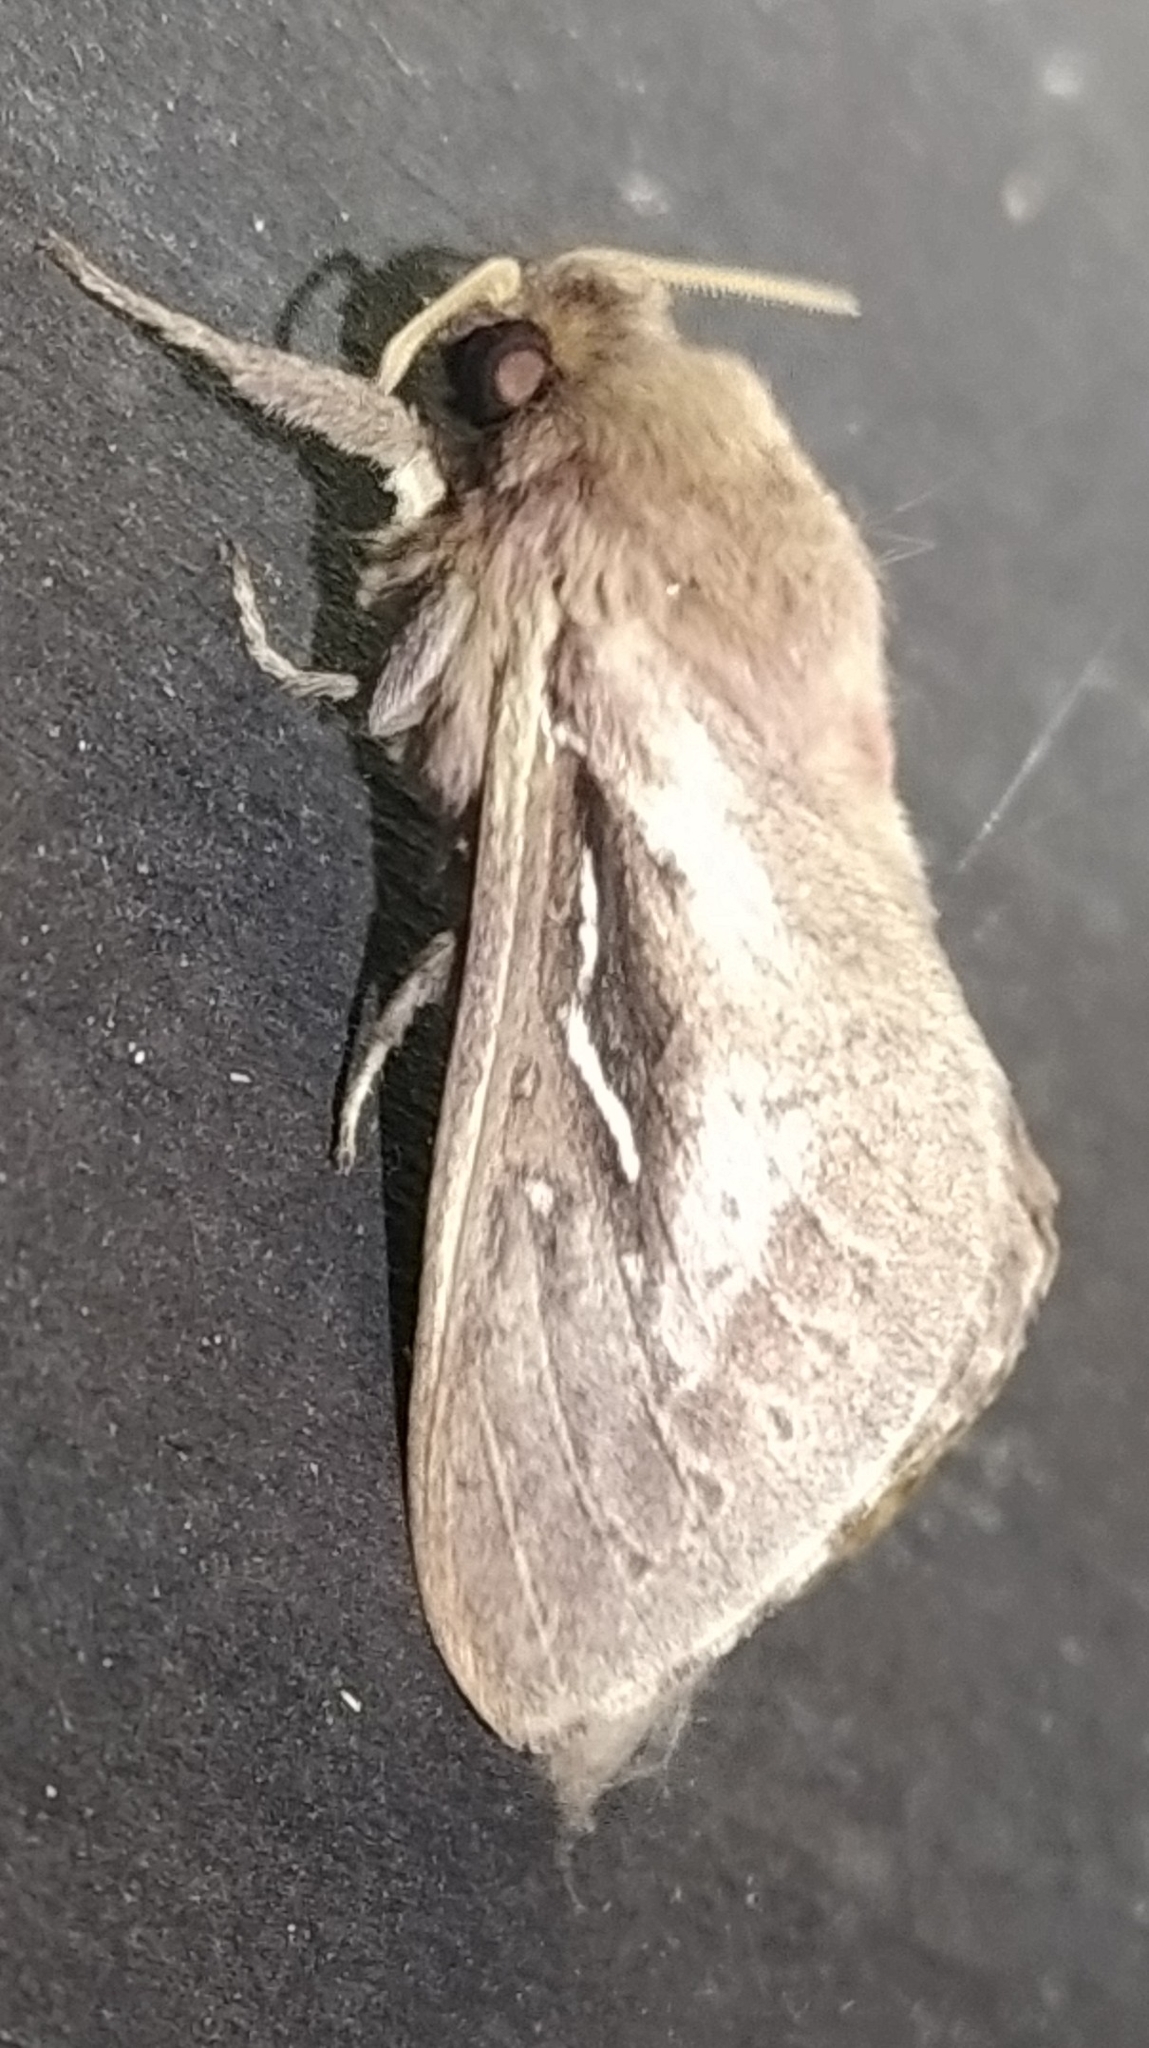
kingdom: Animalia
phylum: Arthropoda
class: Insecta
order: Lepidoptera
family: Hepialidae
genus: Wiseana
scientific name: Wiseana signata
